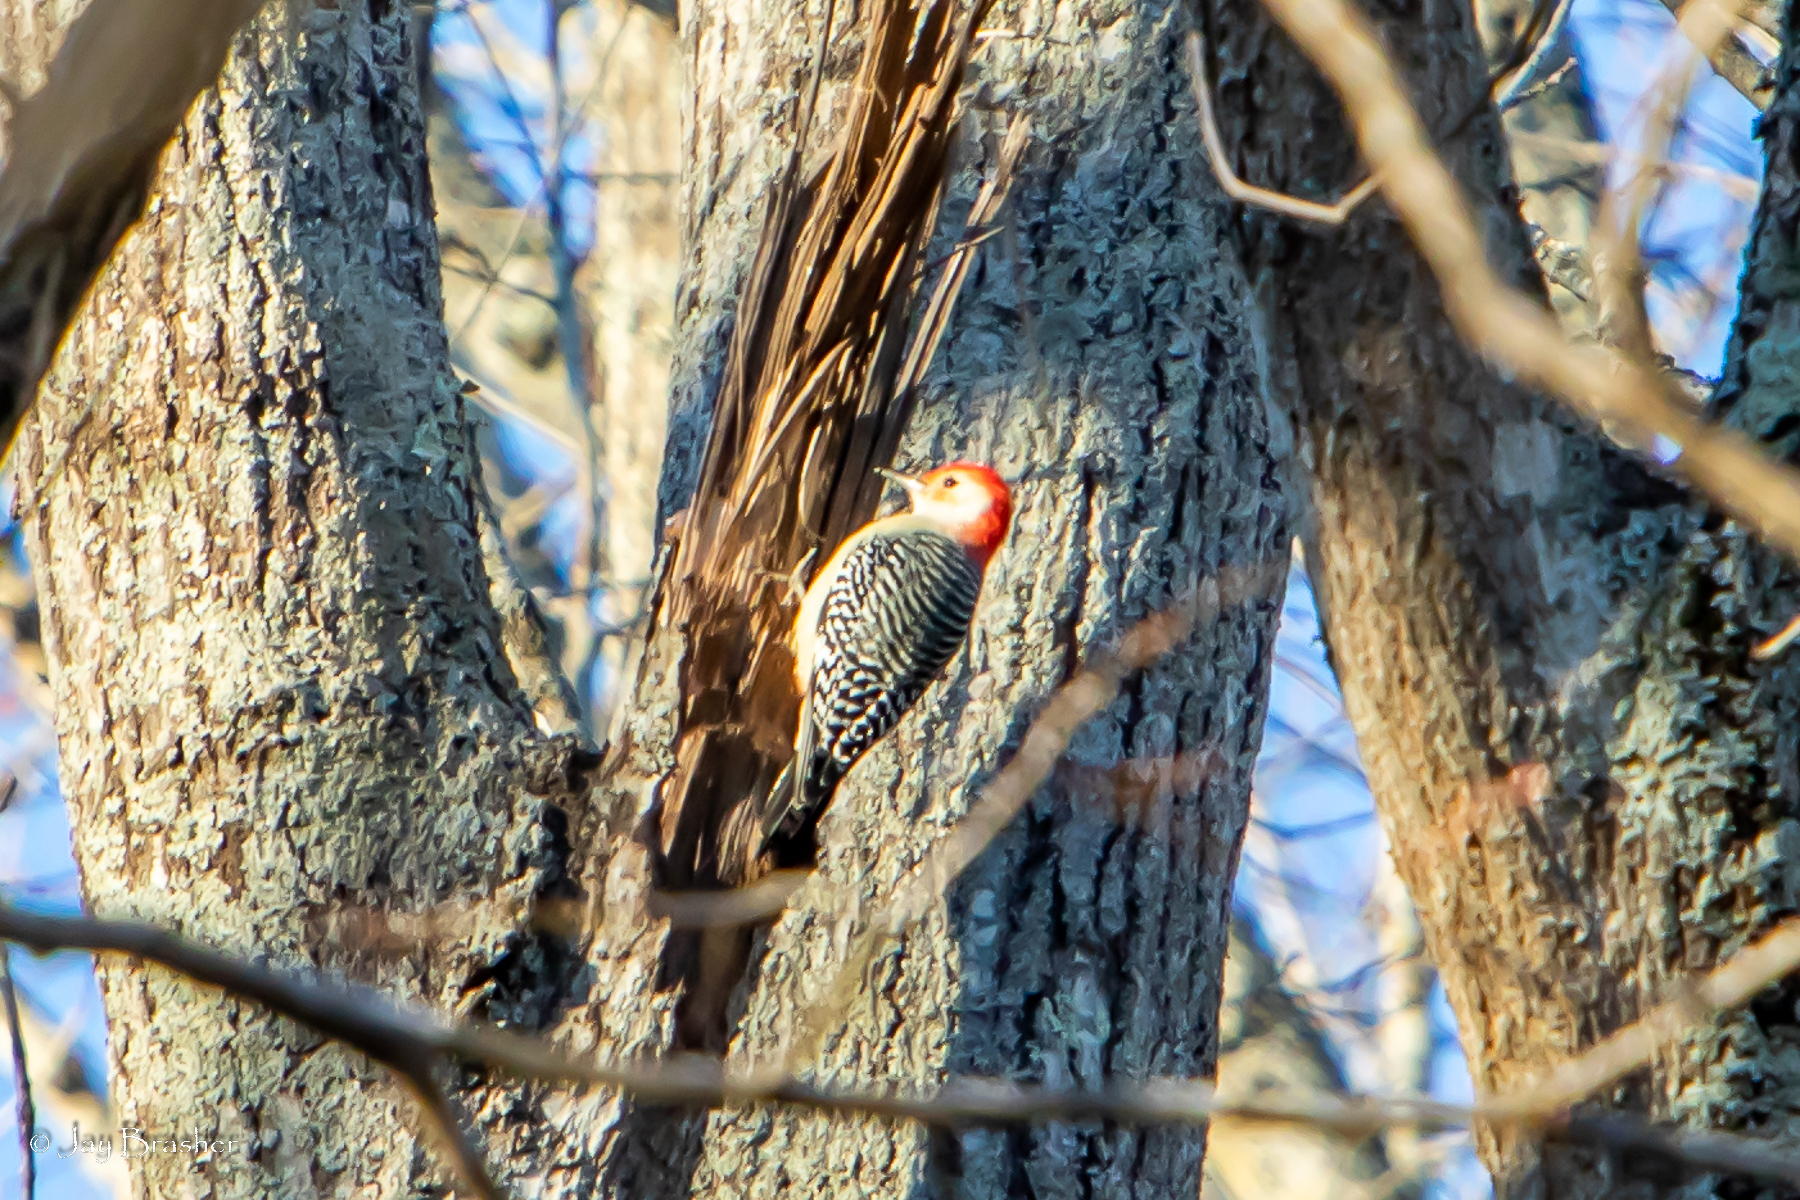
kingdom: Animalia
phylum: Chordata
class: Aves
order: Piciformes
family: Picidae
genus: Melanerpes
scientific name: Melanerpes carolinus
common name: Red-bellied woodpecker
